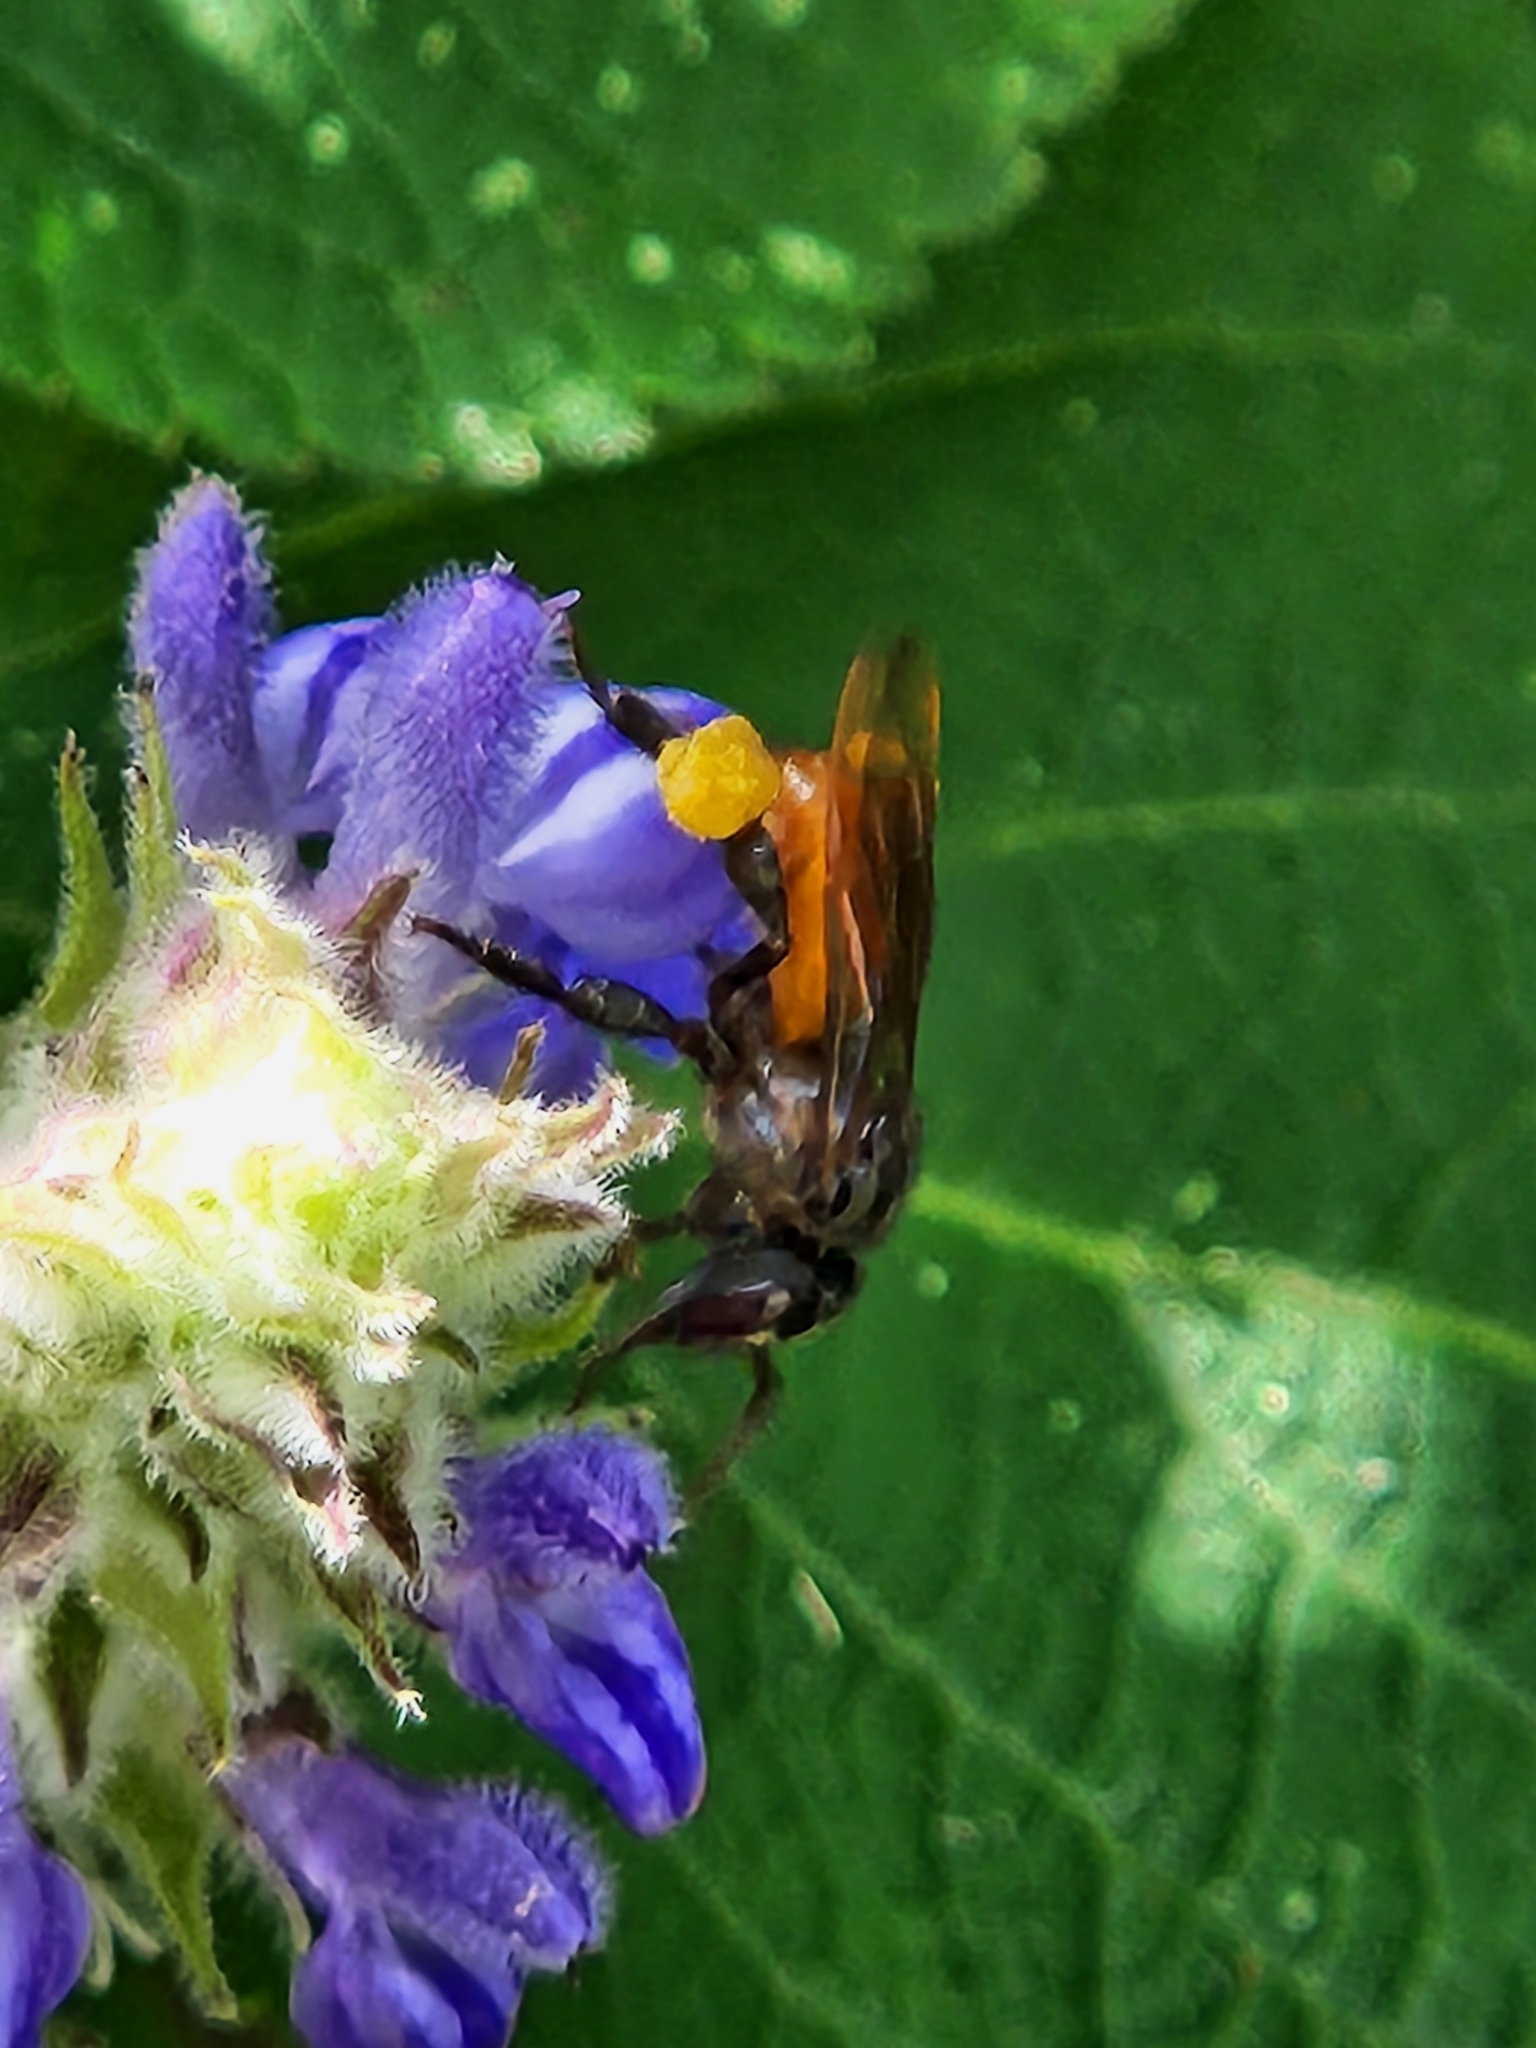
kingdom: Animalia
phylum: Arthropoda
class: Insecta
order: Hymenoptera
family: Apidae
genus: Trigona
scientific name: Trigona fulviventris
